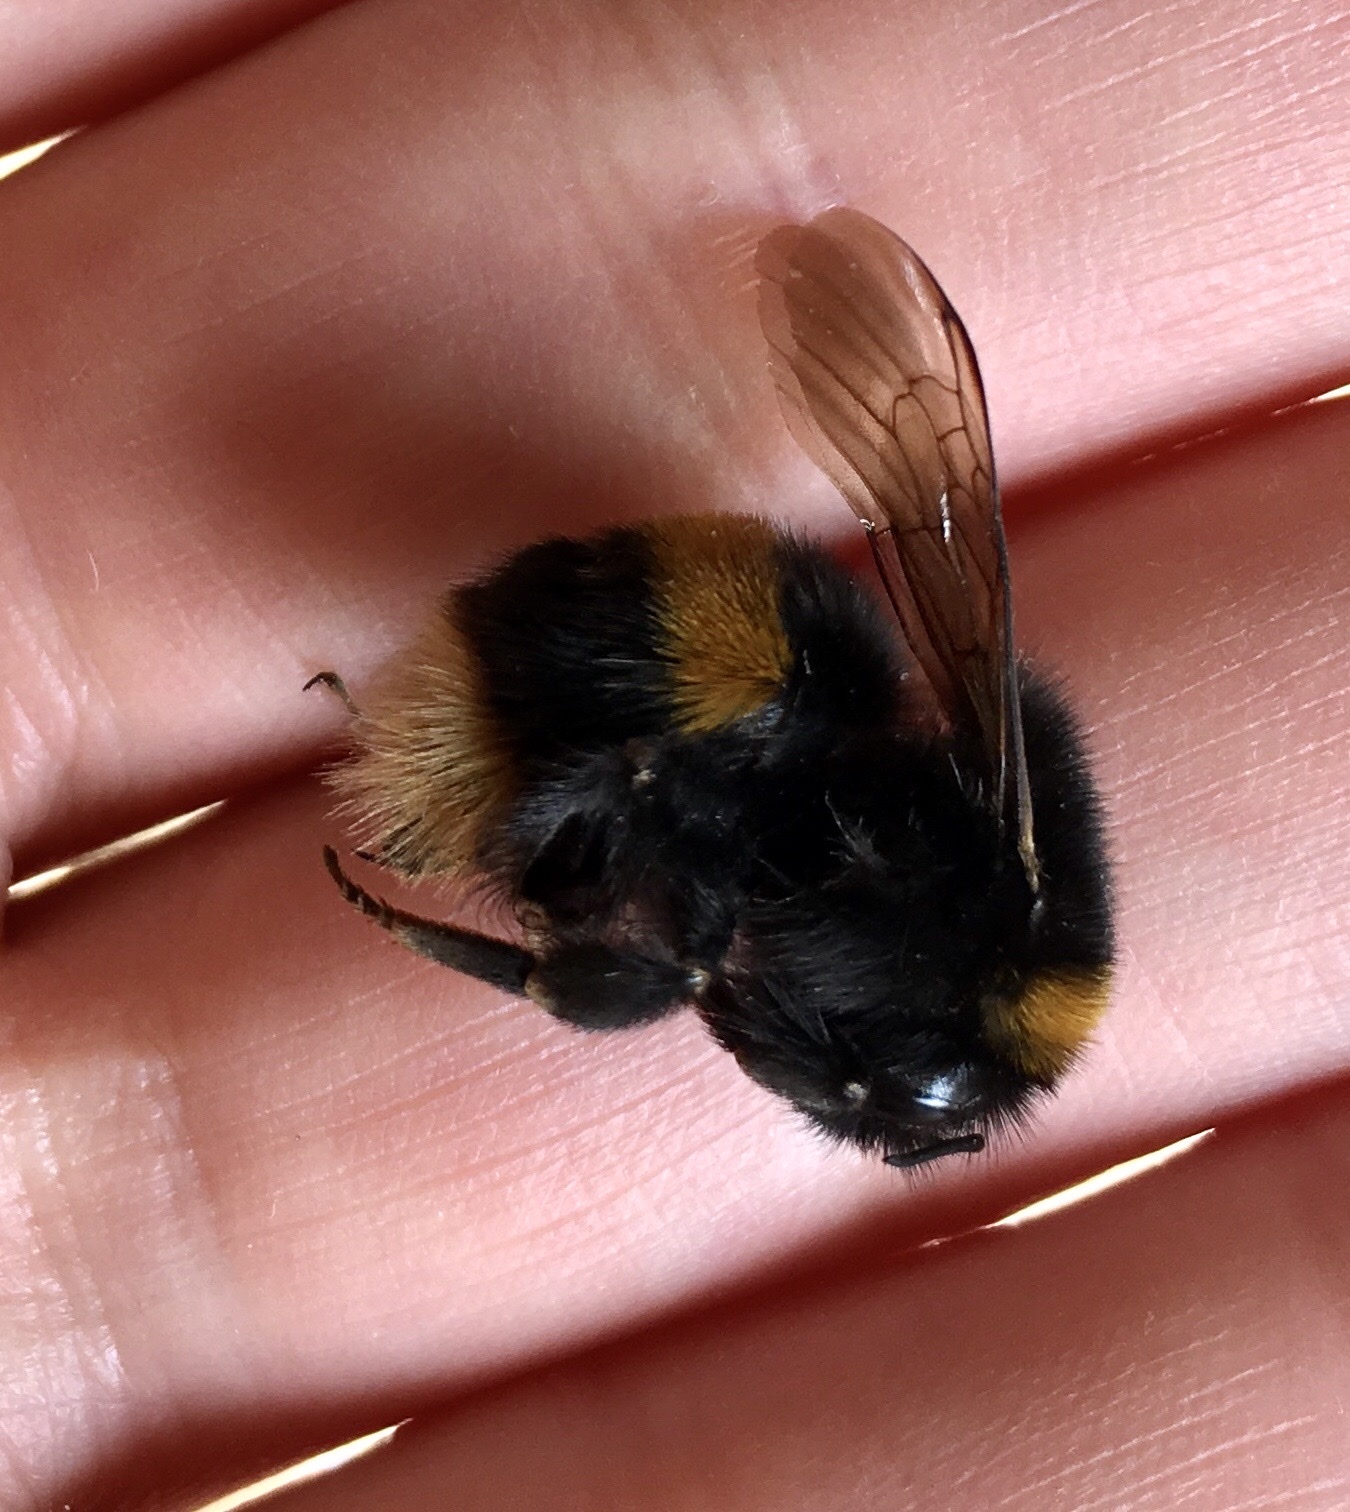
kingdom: Animalia
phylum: Arthropoda
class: Insecta
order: Hymenoptera
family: Apidae
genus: Bombus
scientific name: Bombus terrestris
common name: Buff-tailed bumblebee
